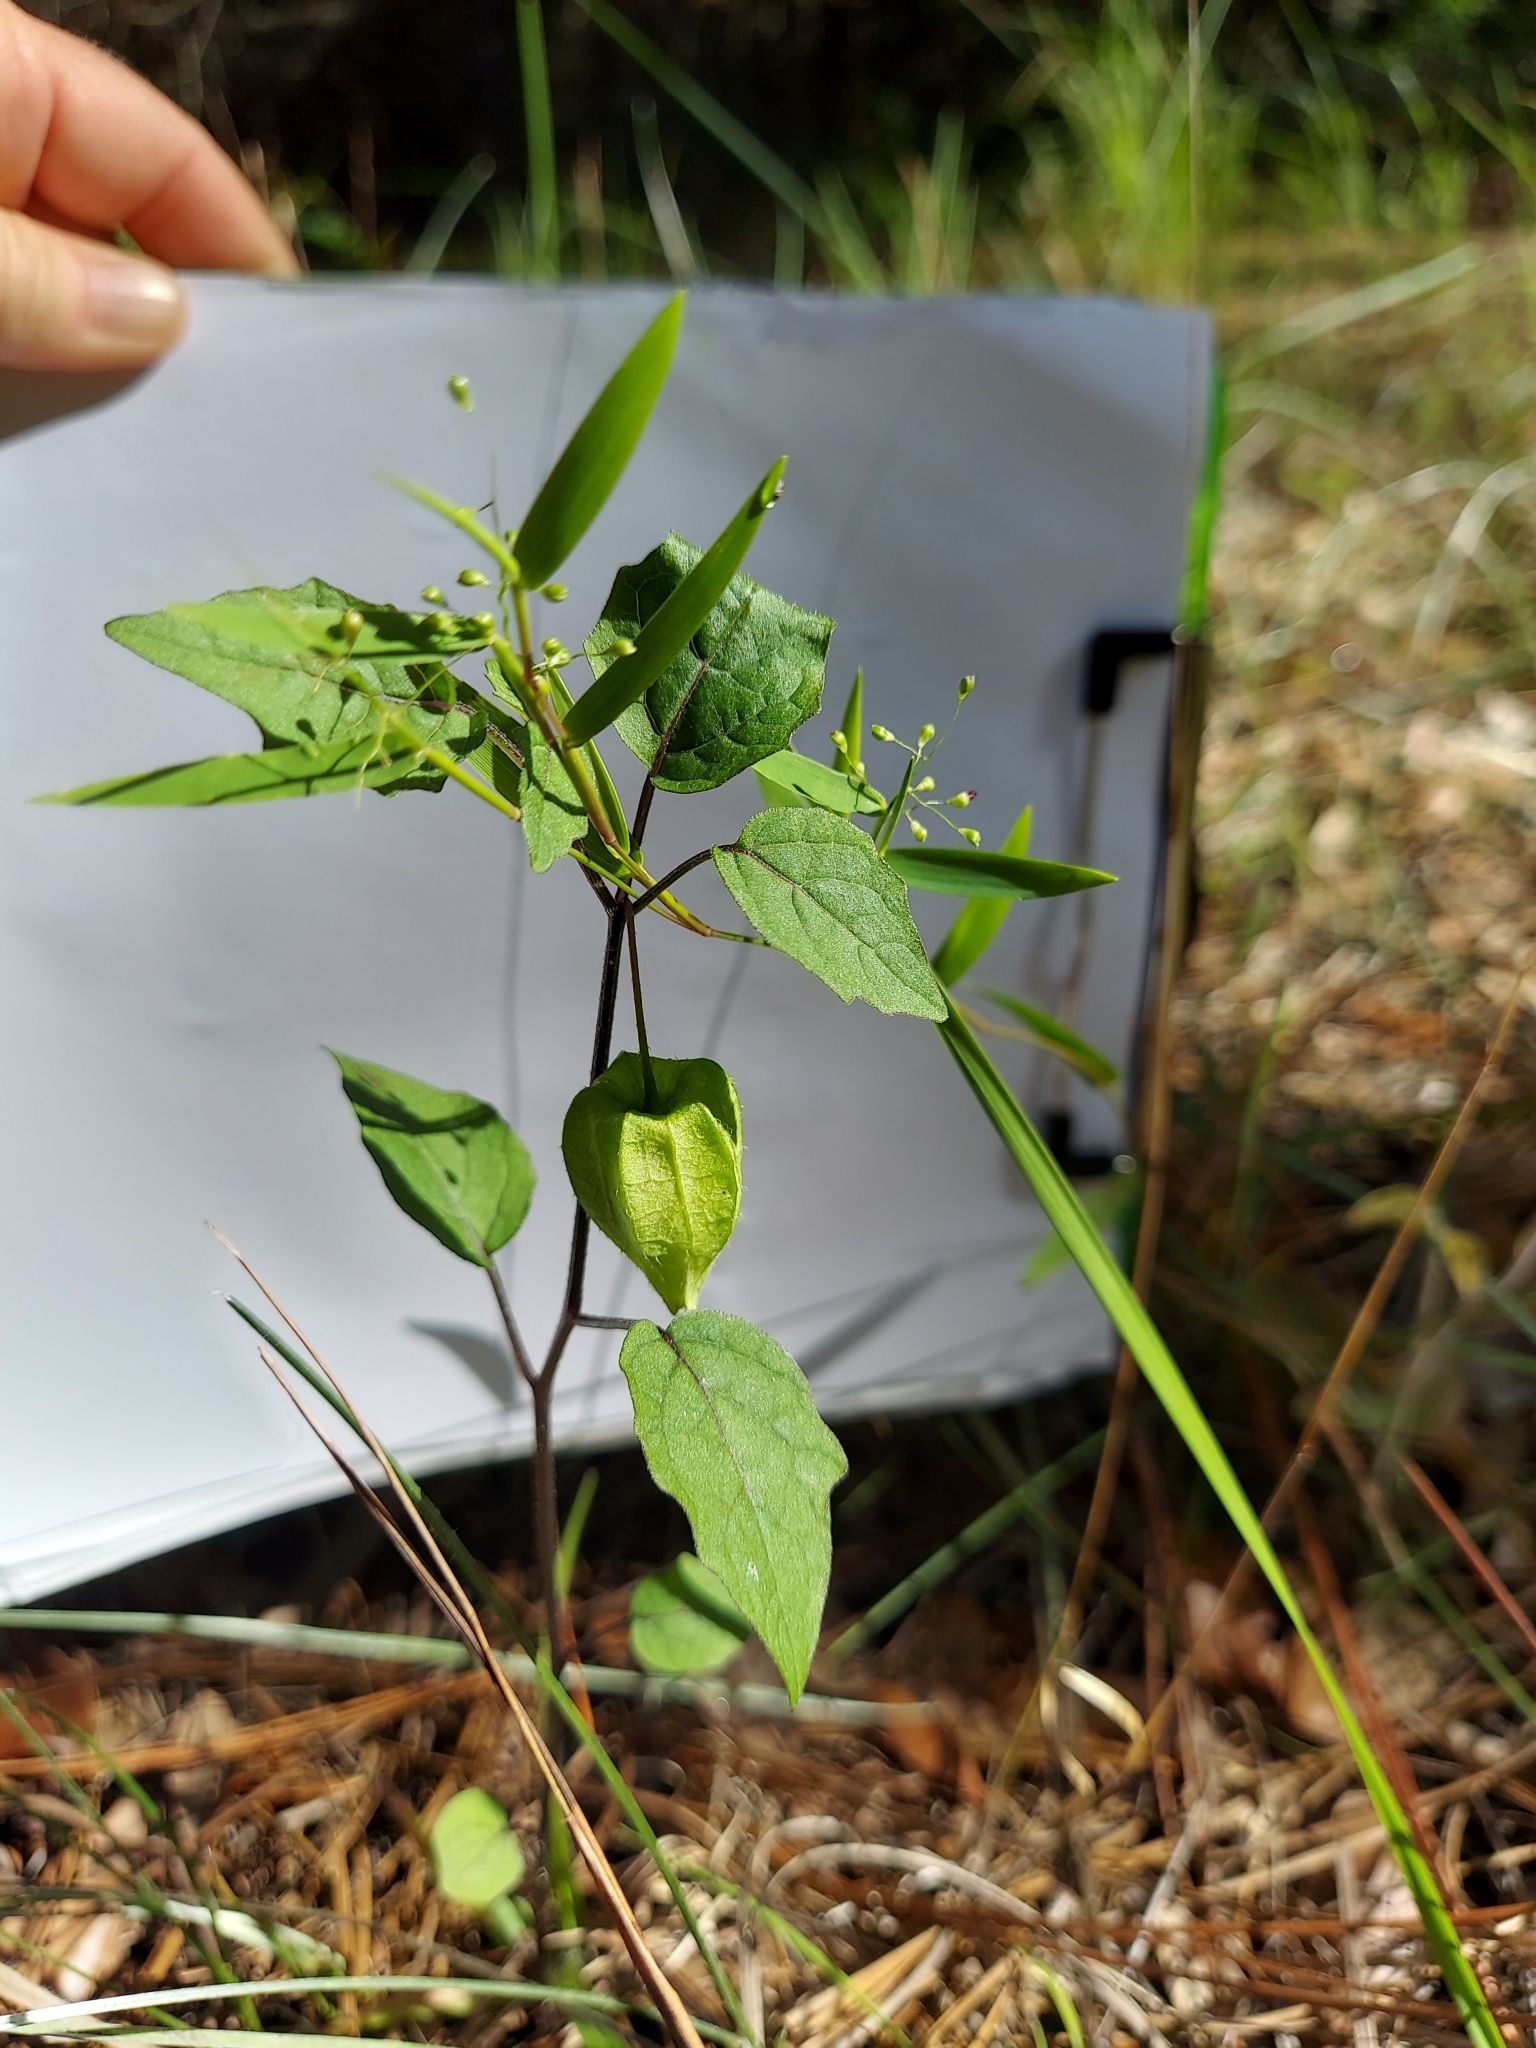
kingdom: Plantae
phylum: Tracheophyta
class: Magnoliopsida
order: Solanales
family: Solanaceae
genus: Physalis
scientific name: Physalis pubescens
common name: Downy ground-cherry
